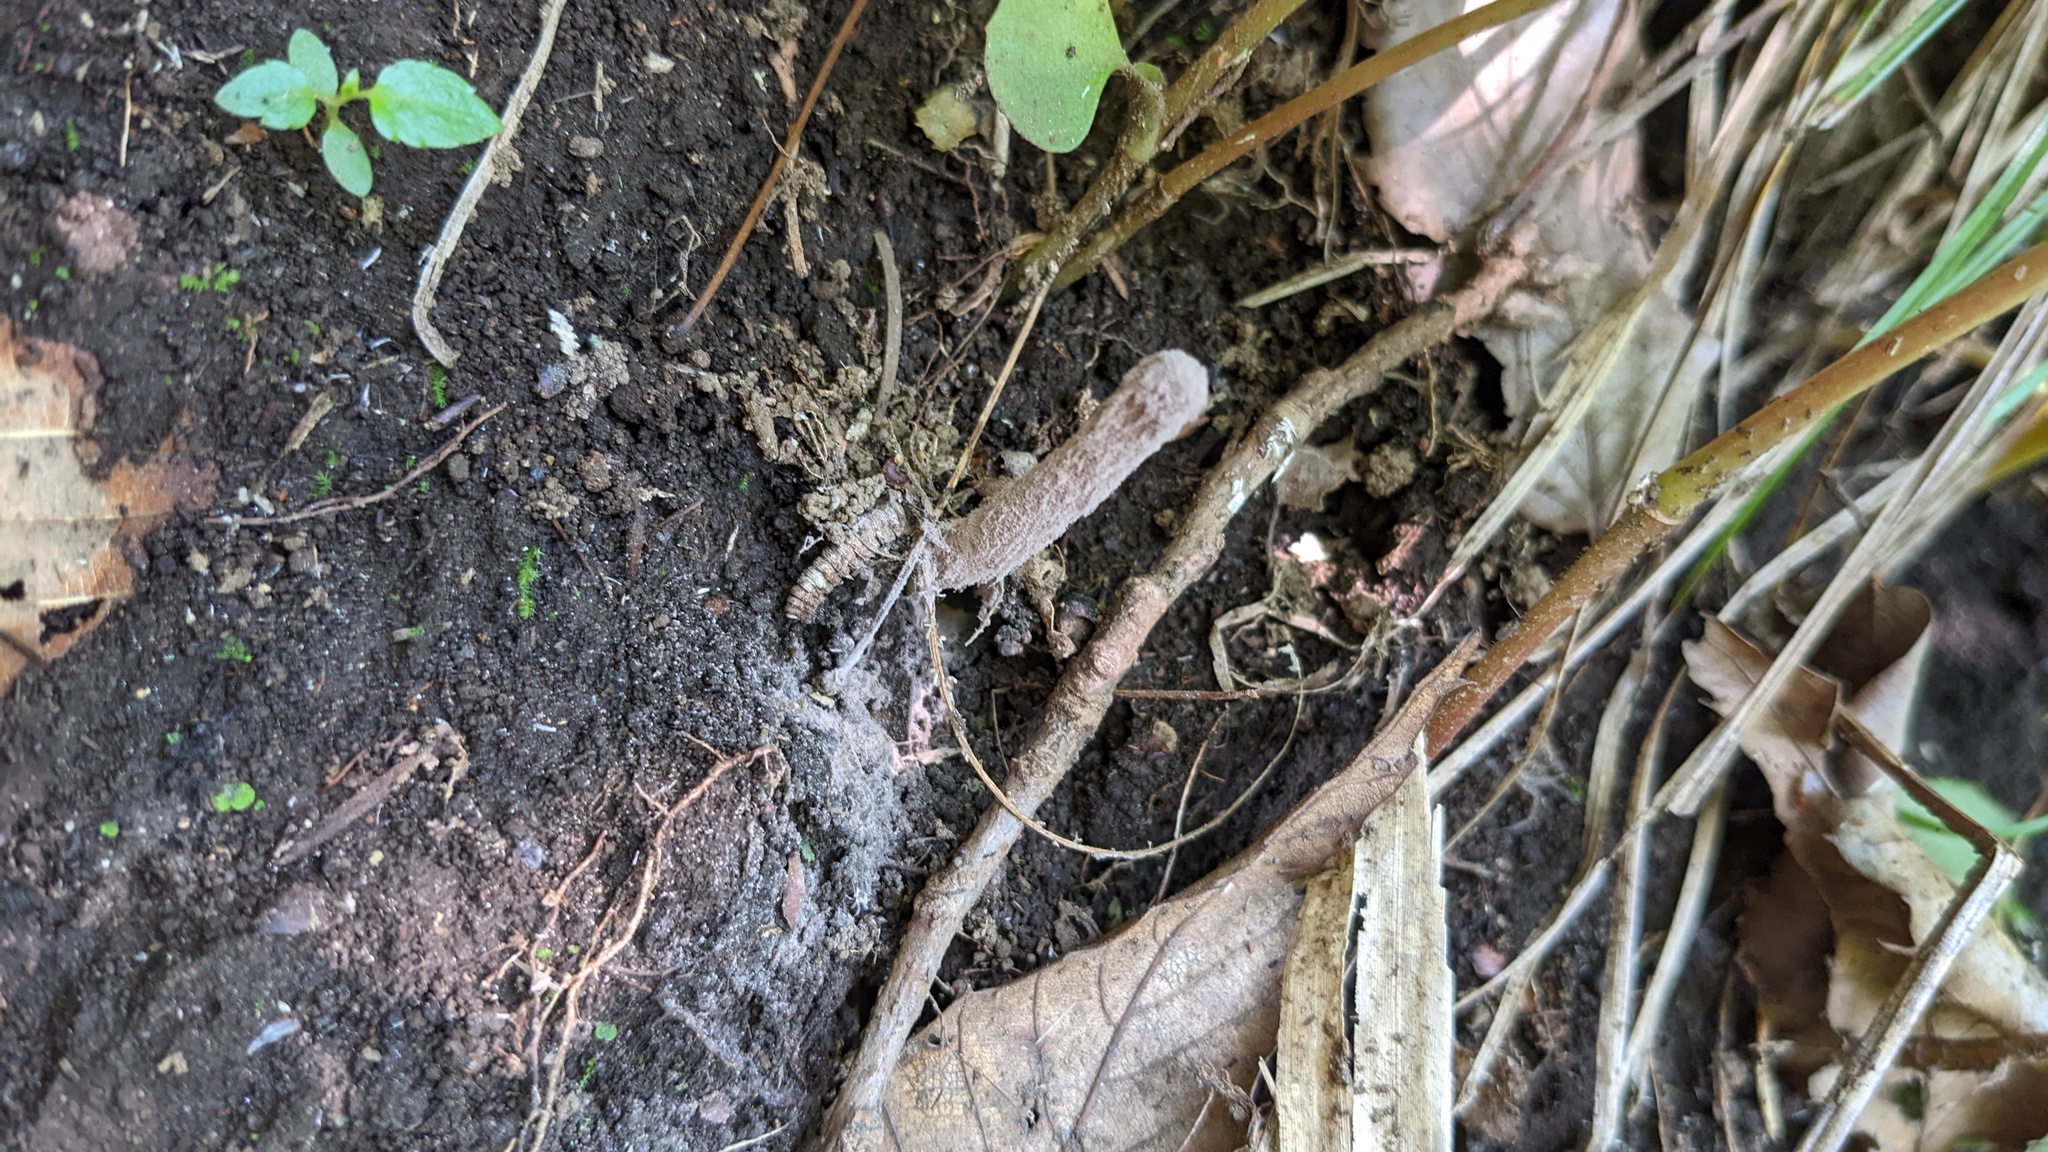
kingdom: Fungi
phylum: Ascomycota
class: Sordariomycetes
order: Hypocreales
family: Ophiocordycipitaceae
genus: Purpureocillium
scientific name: Purpureocillium atypicola
